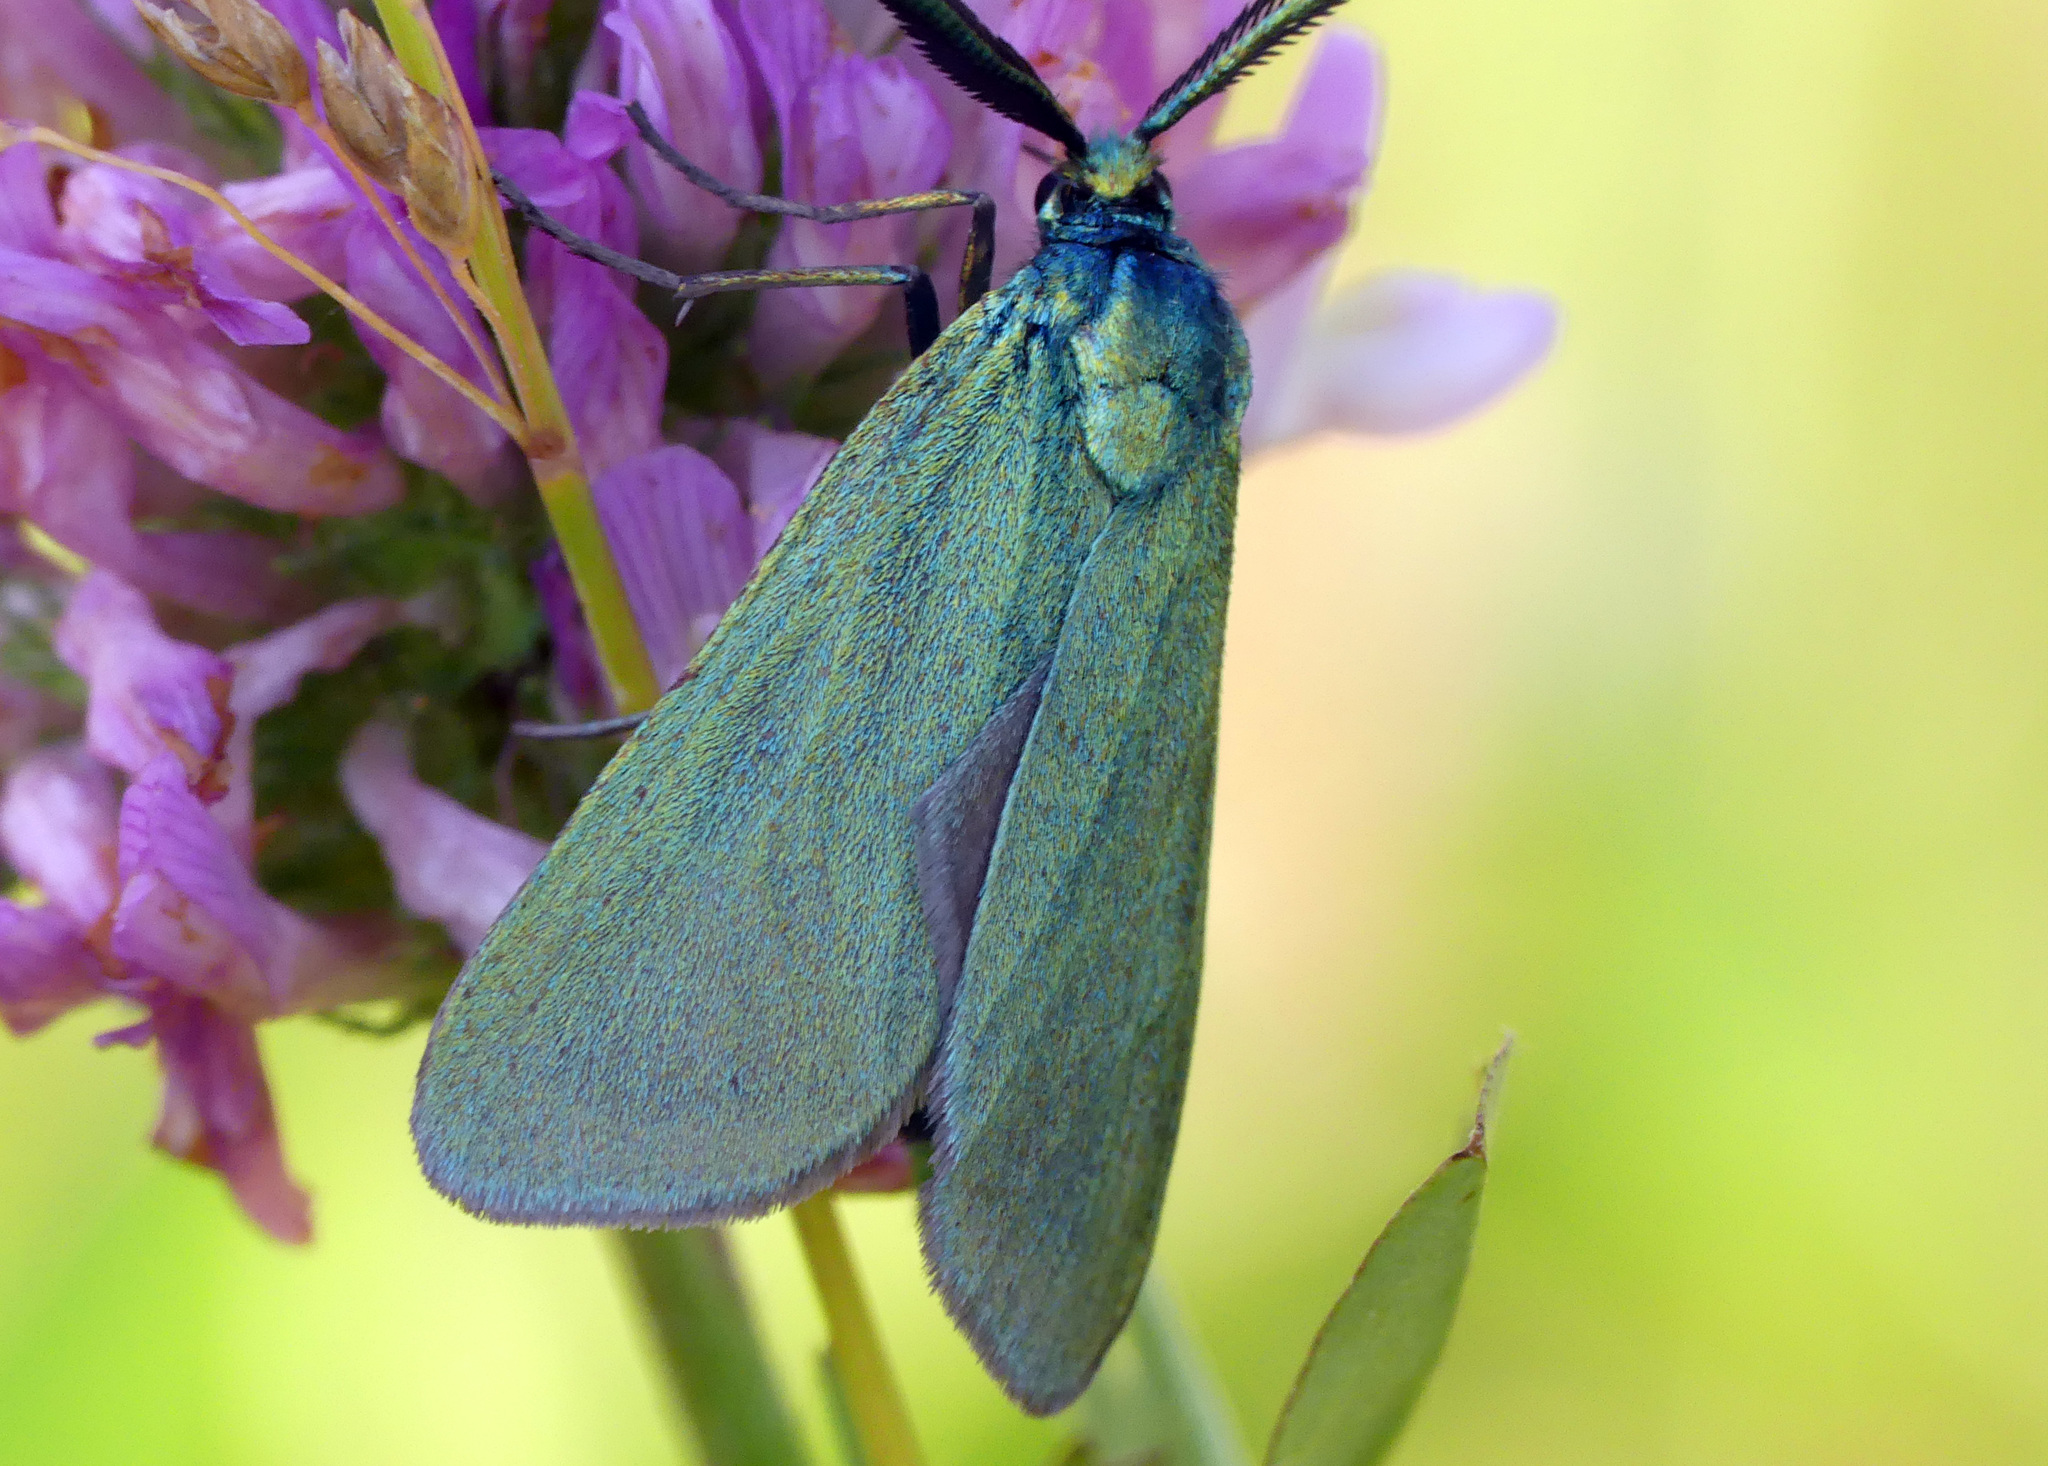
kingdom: Animalia
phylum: Arthropoda
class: Insecta
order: Lepidoptera
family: Zygaenidae
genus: Adscita
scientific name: Adscita statices
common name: Forester
